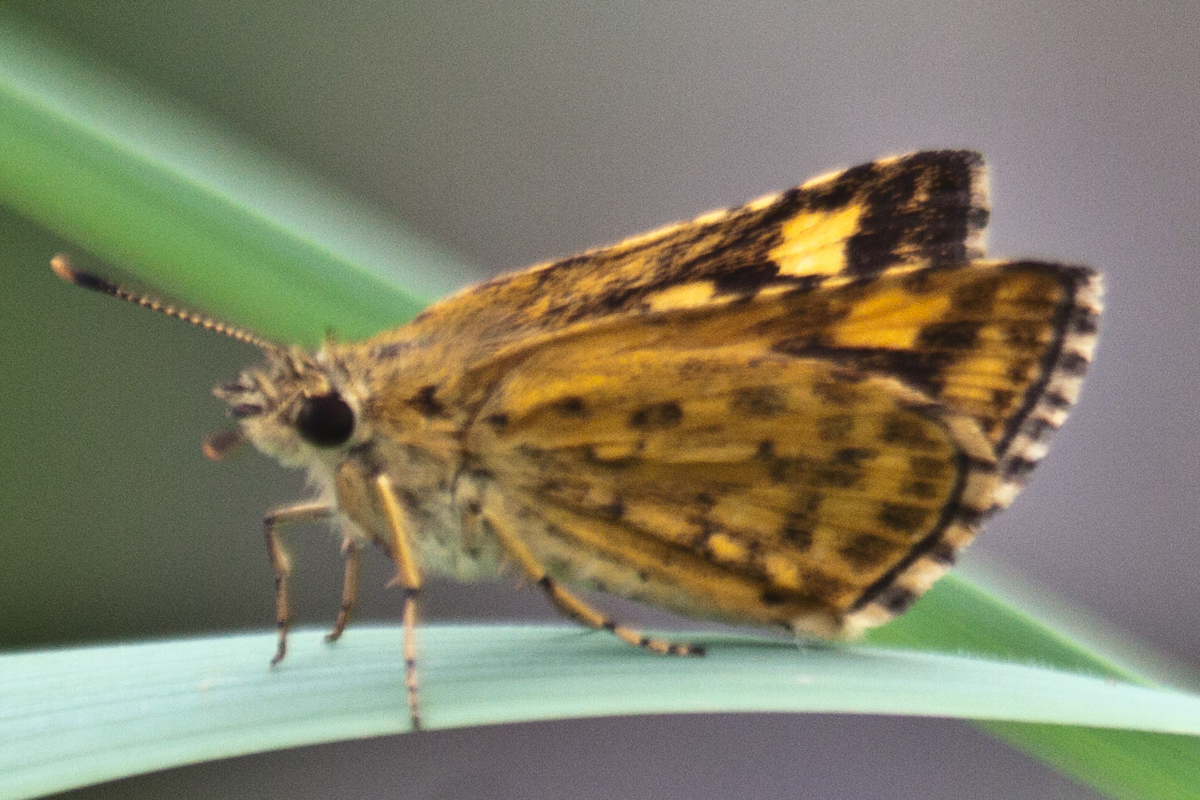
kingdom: Animalia
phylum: Arthropoda
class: Insecta
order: Lepidoptera
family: Hesperiidae
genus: Ampittia
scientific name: Ampittia dioscorides
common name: Common bush hopper
